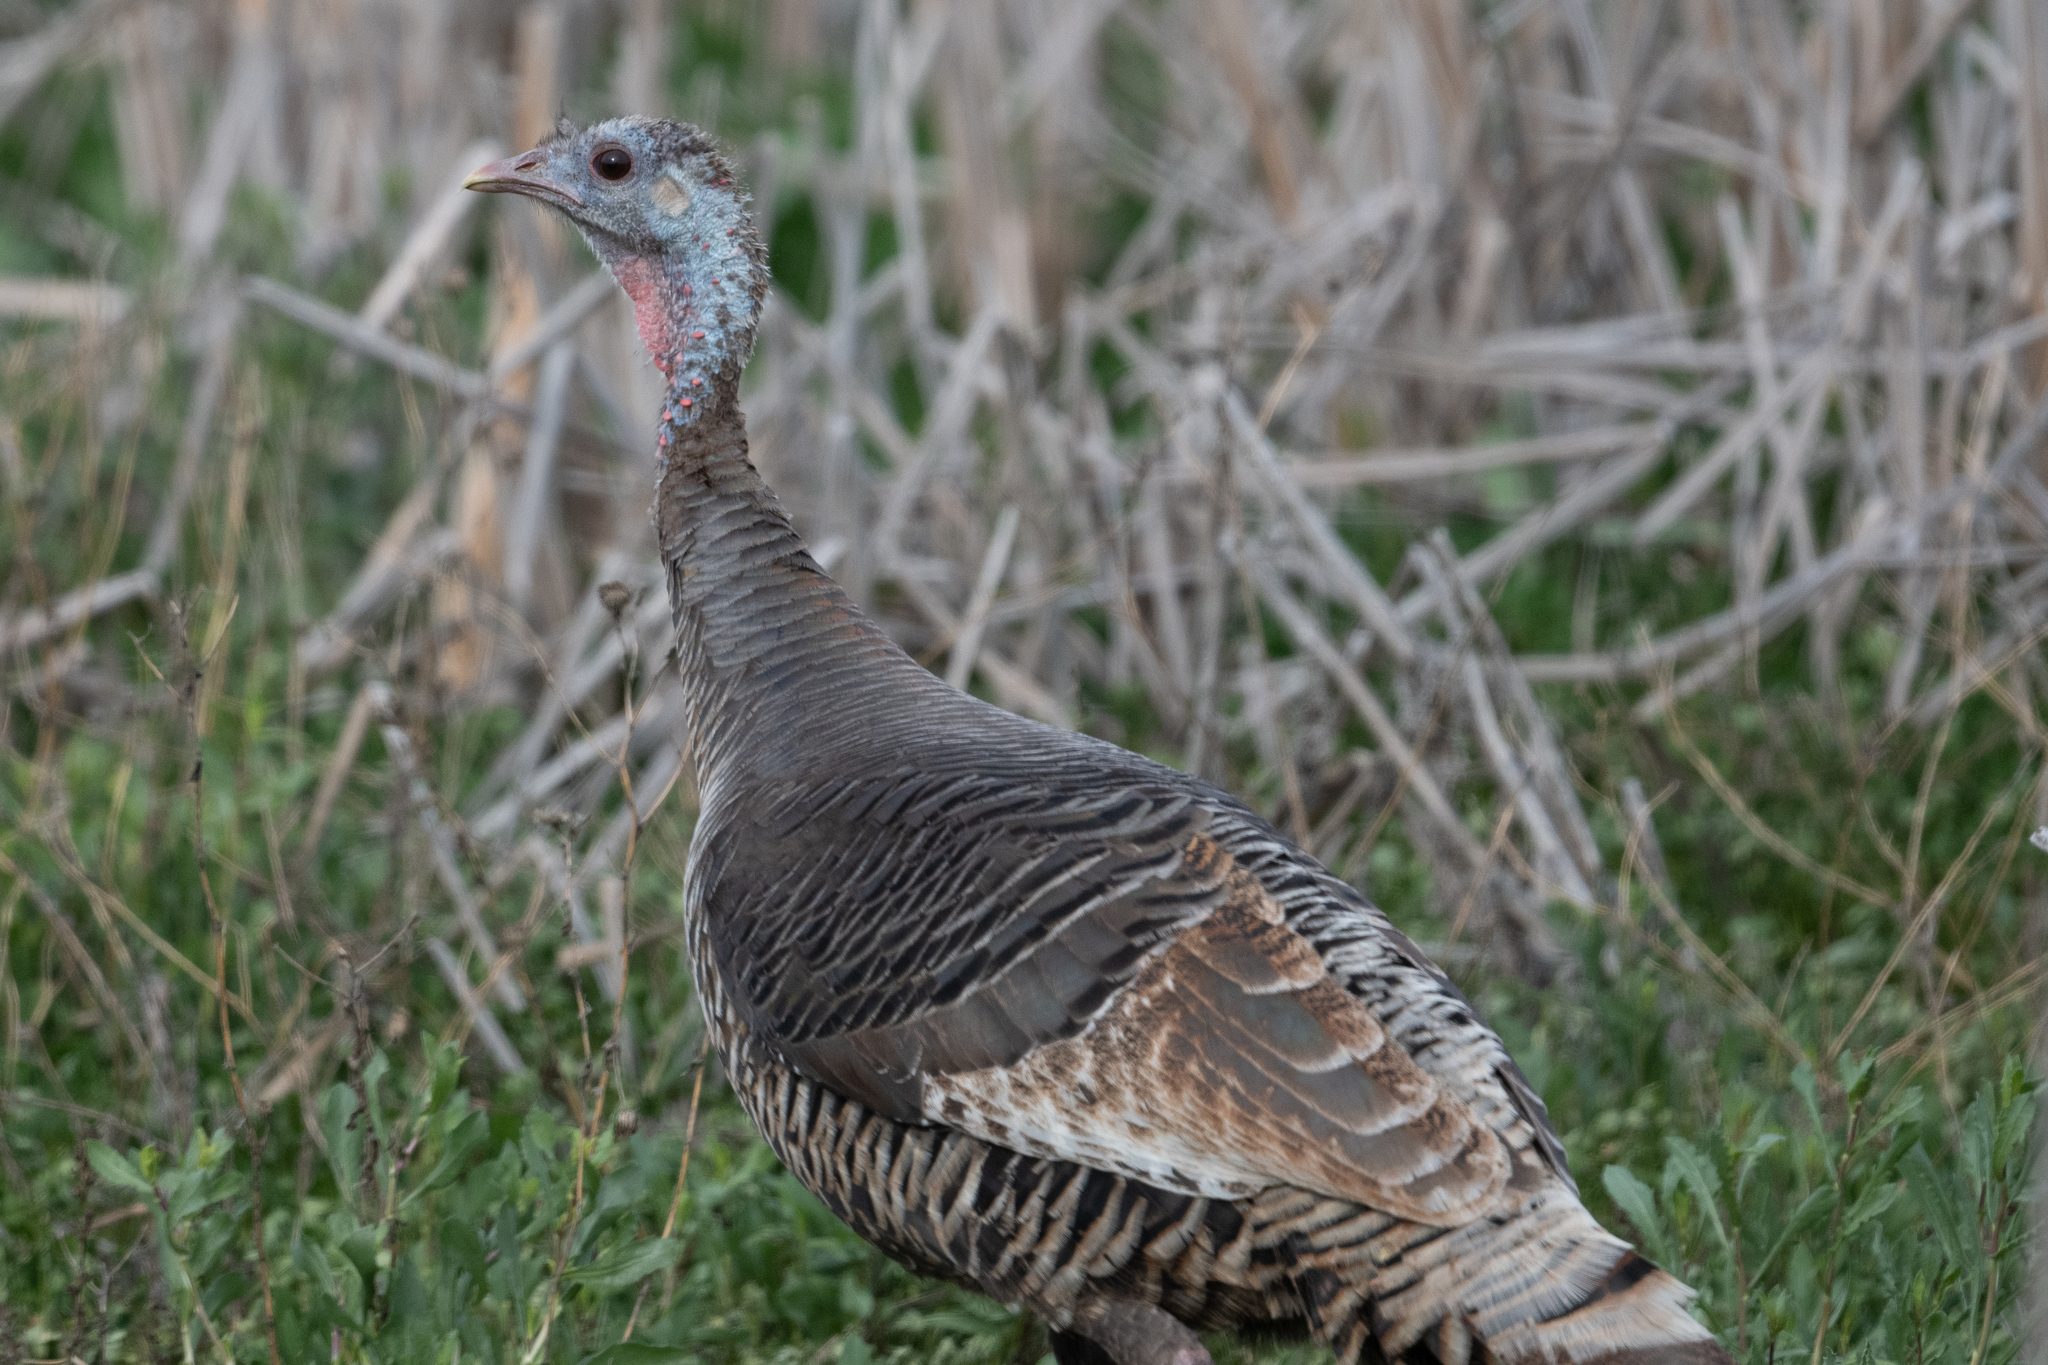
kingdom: Animalia
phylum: Chordata
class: Aves
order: Galliformes
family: Phasianidae
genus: Meleagris
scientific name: Meleagris gallopavo
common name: Wild turkey
